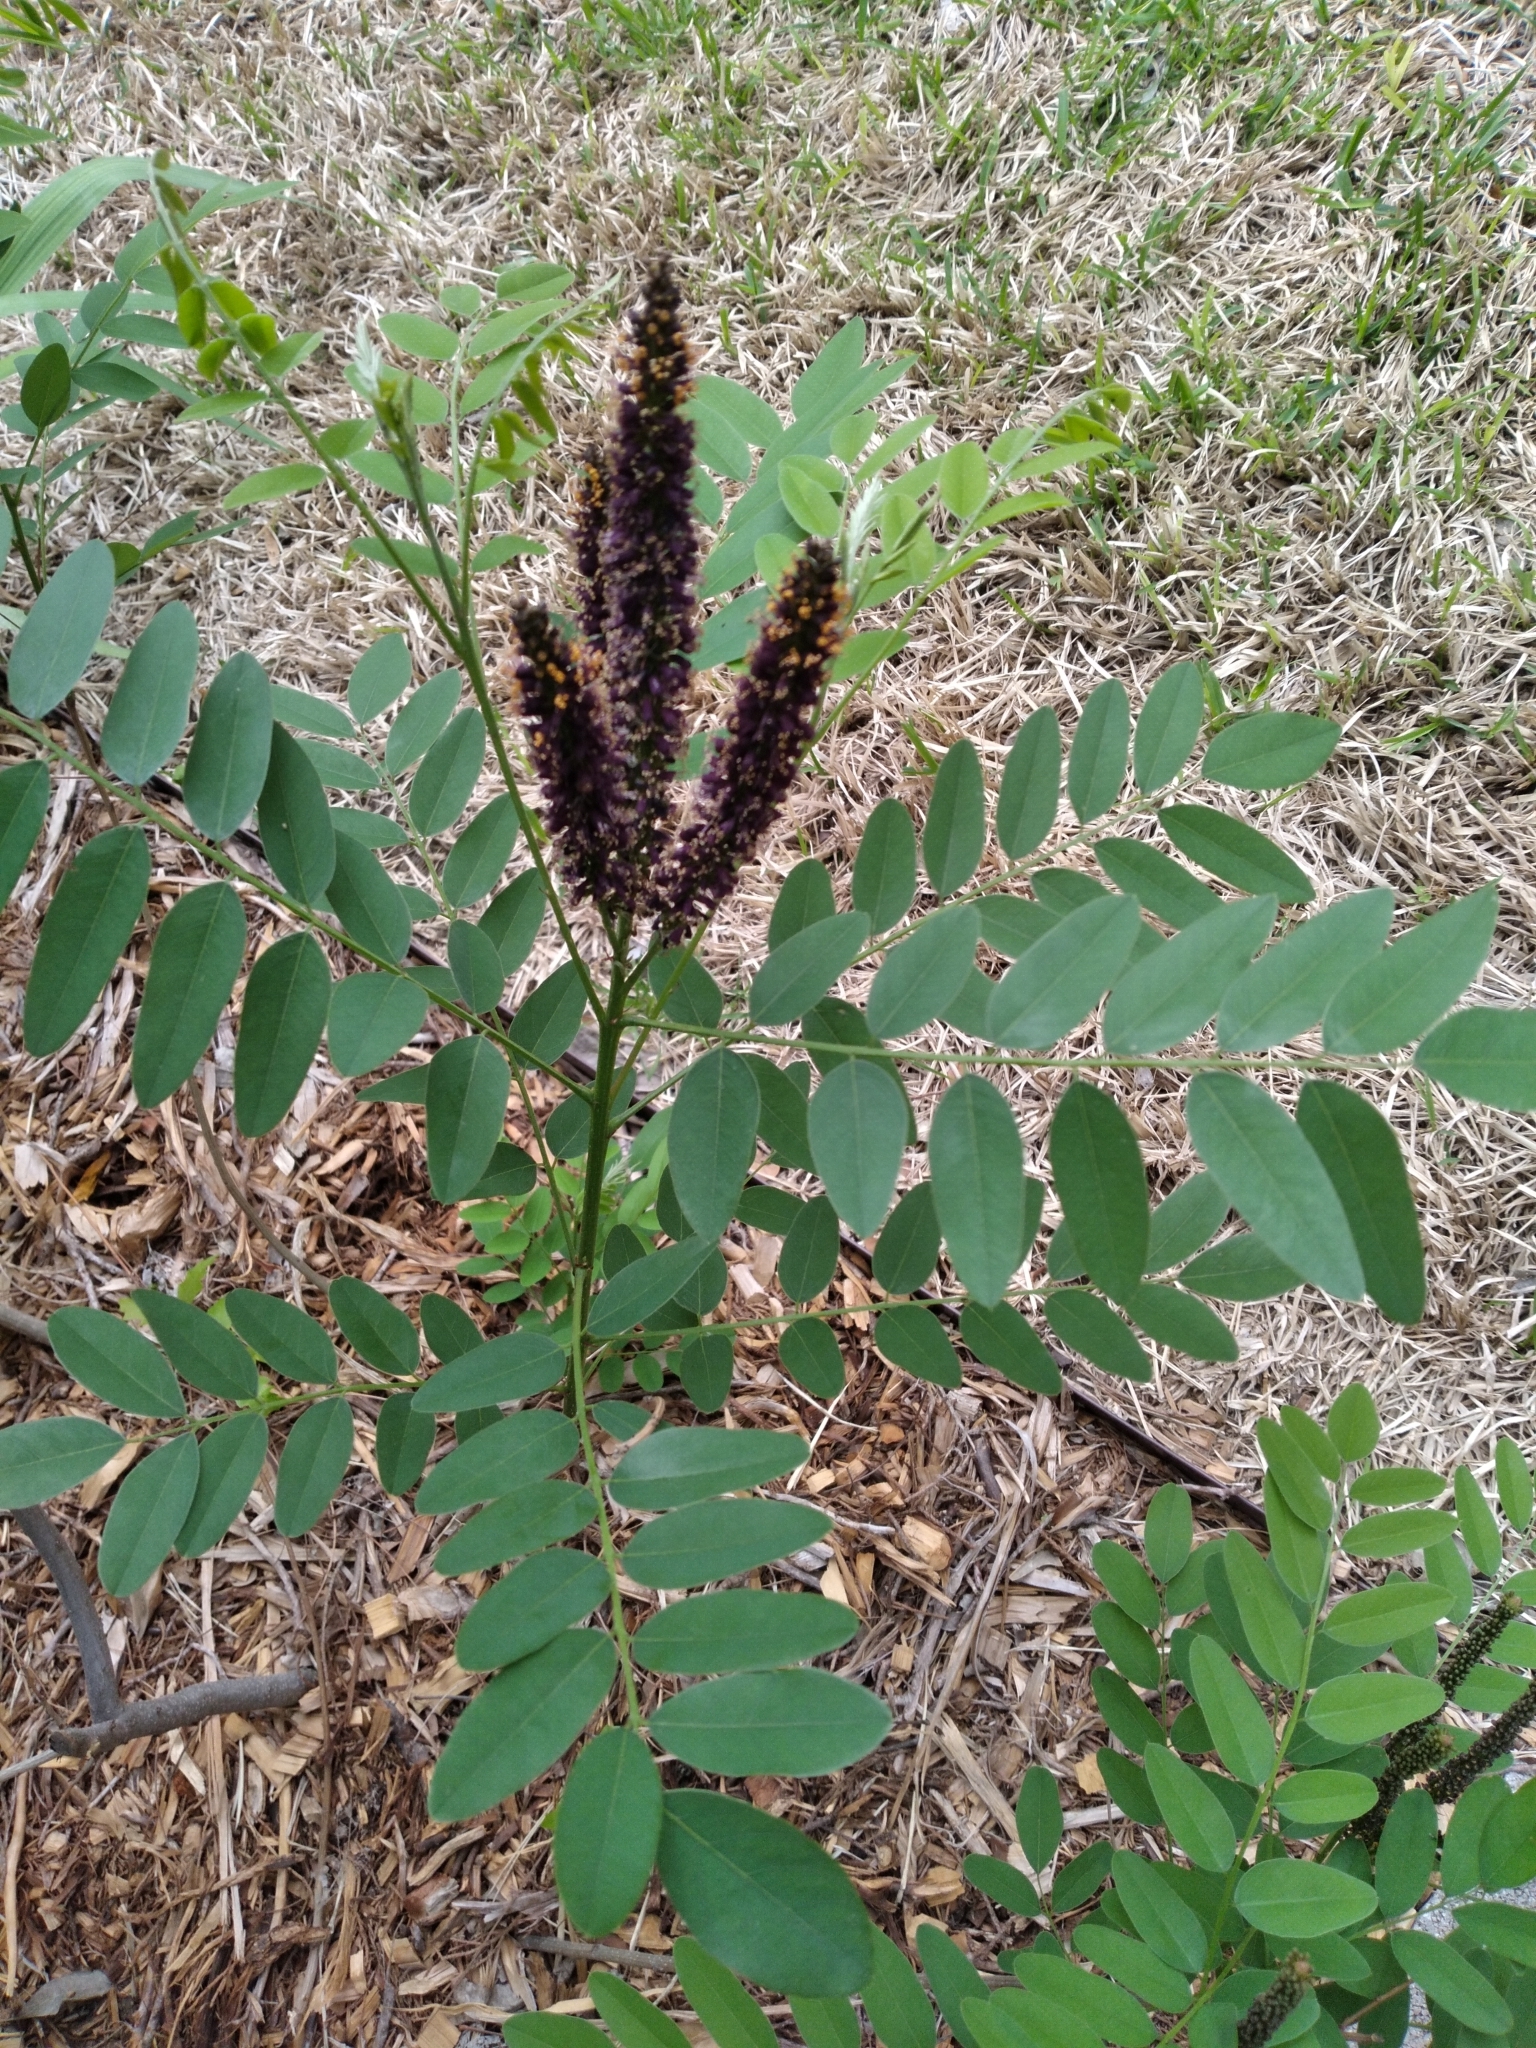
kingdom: Plantae
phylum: Tracheophyta
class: Magnoliopsida
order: Fabales
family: Fabaceae
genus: Amorpha
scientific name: Amorpha fruticosa
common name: False indigo
